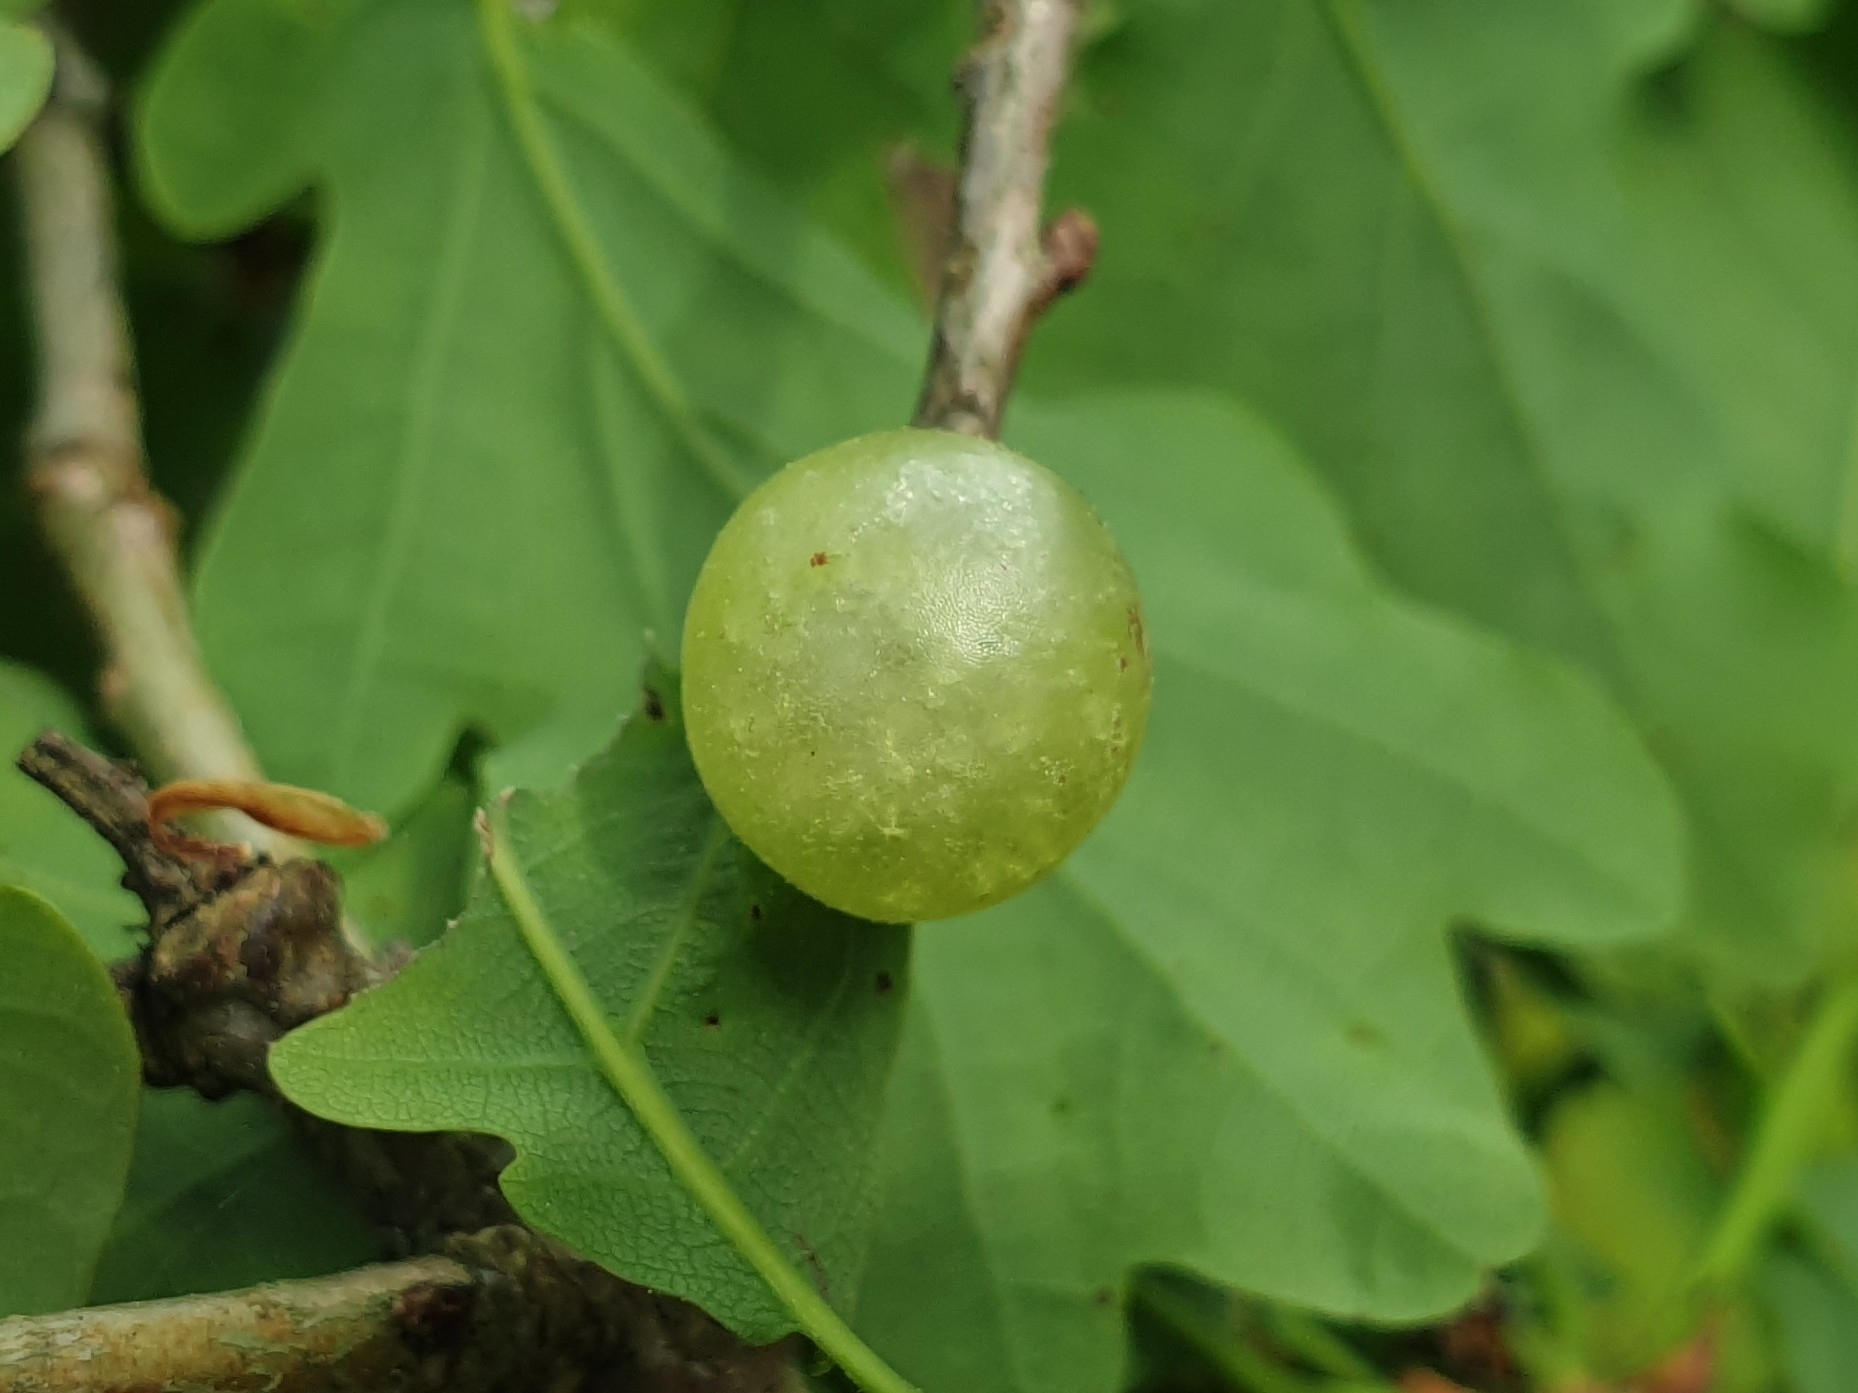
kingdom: Animalia
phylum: Arthropoda
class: Insecta
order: Hymenoptera
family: Cynipidae
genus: Neuroterus
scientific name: Neuroterus quercusbaccarum
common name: Common spangle gall
